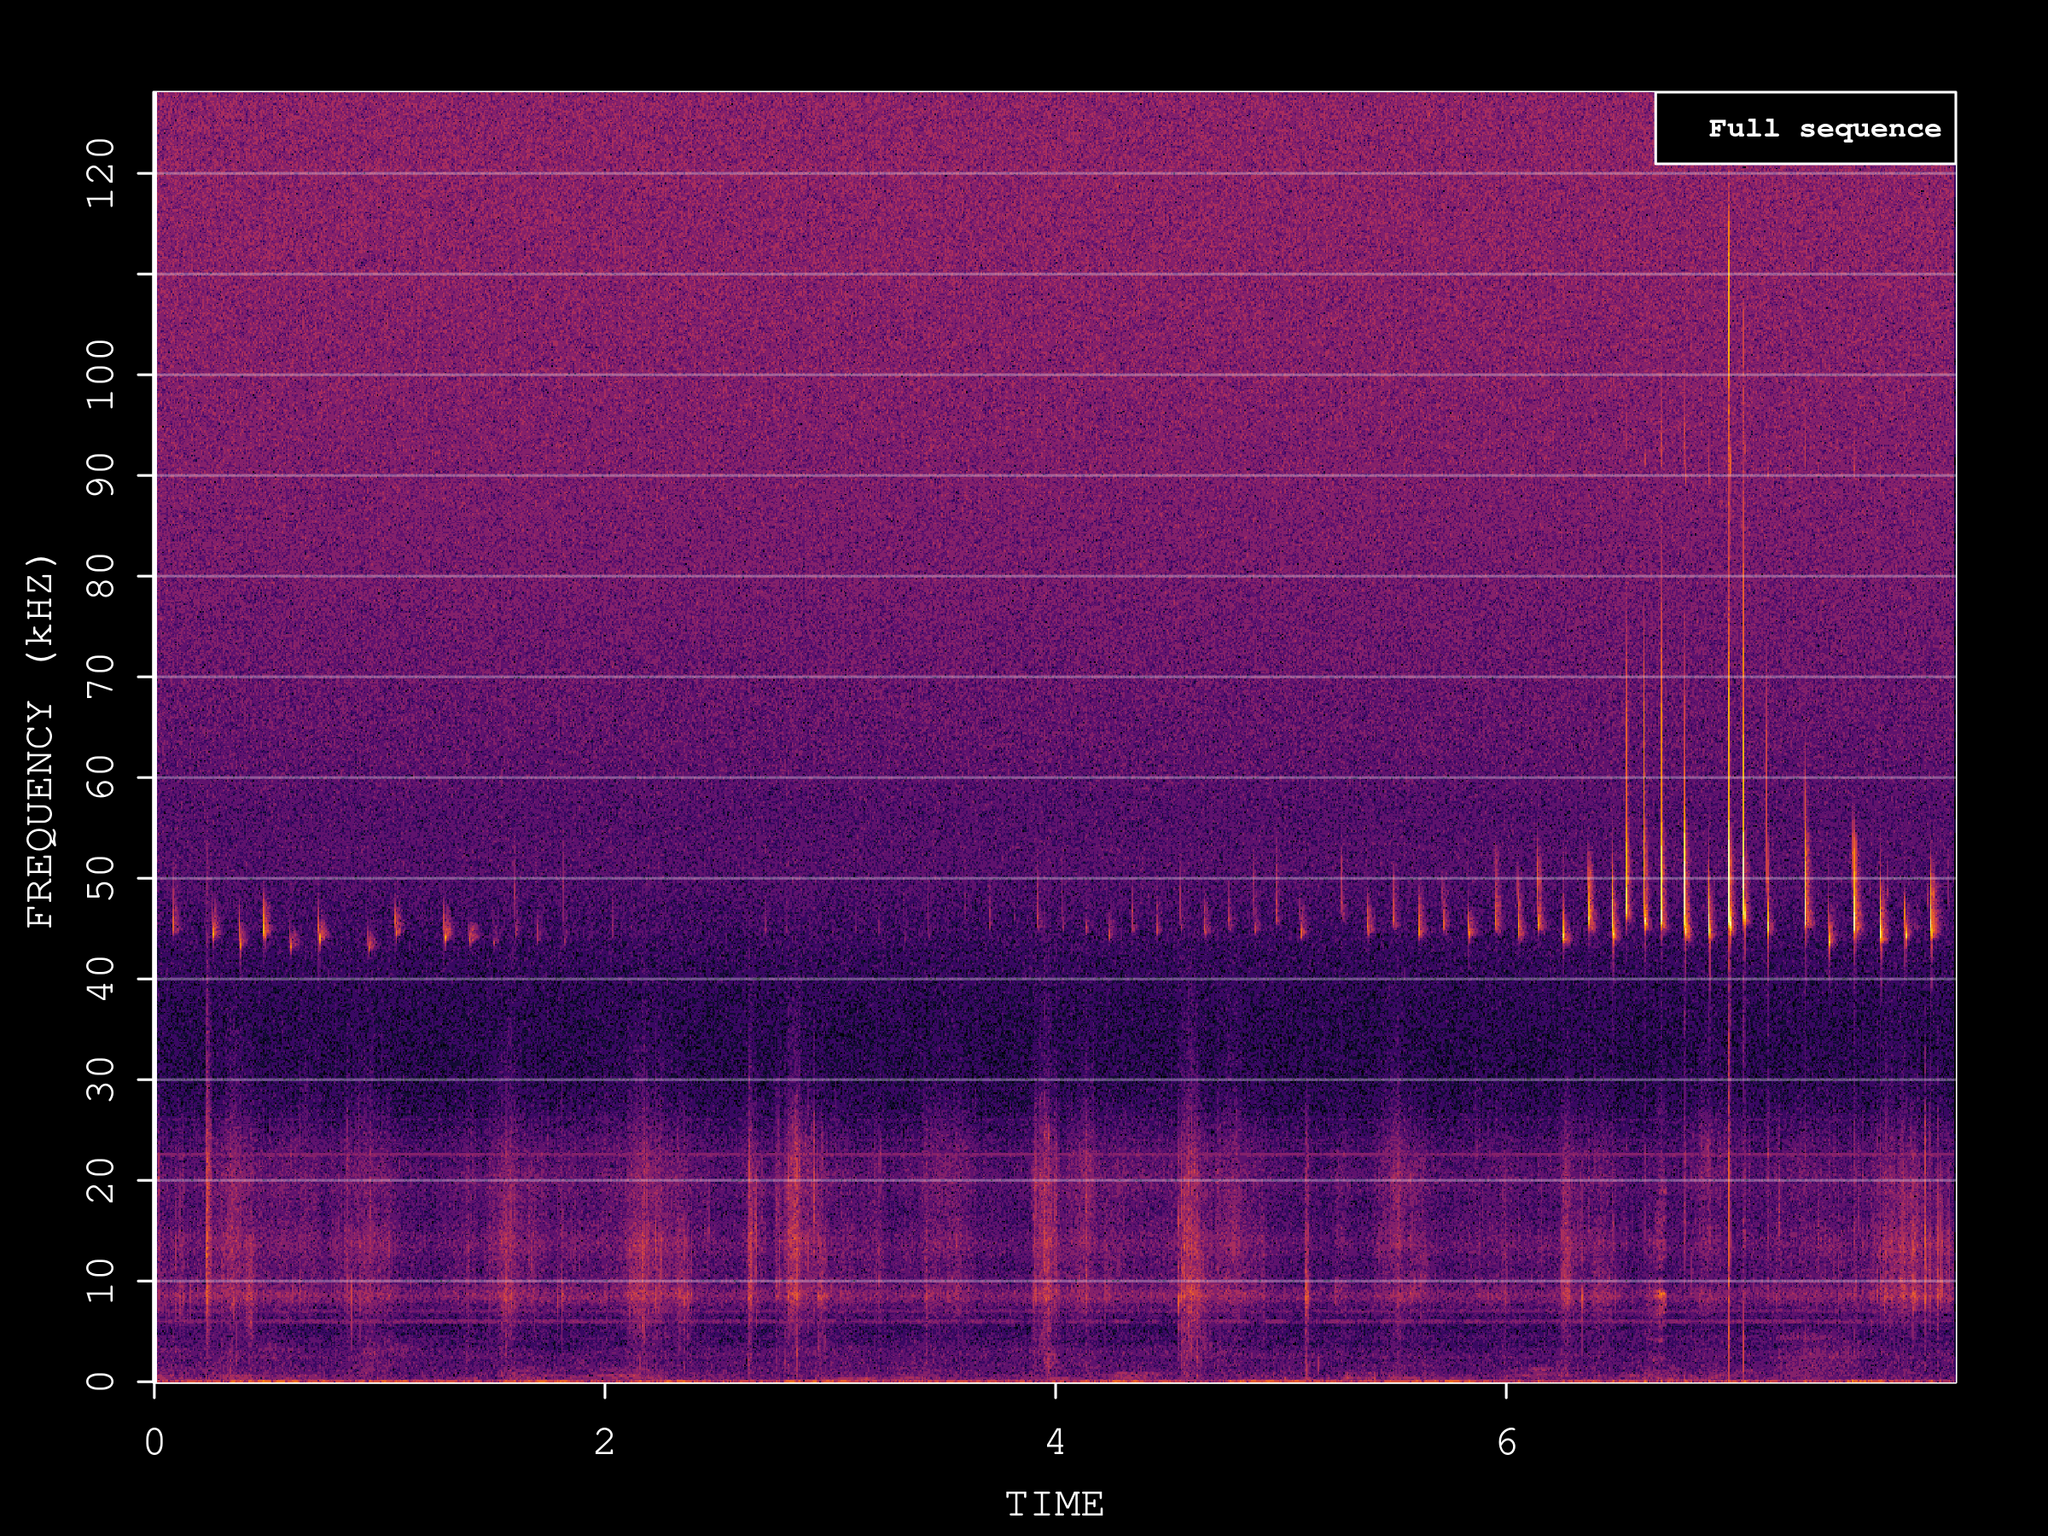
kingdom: Animalia
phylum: Chordata
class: Mammalia
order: Chiroptera
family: Vespertilionidae
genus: Pipistrellus
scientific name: Pipistrellus pipistrellus
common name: Common pipistrelle
